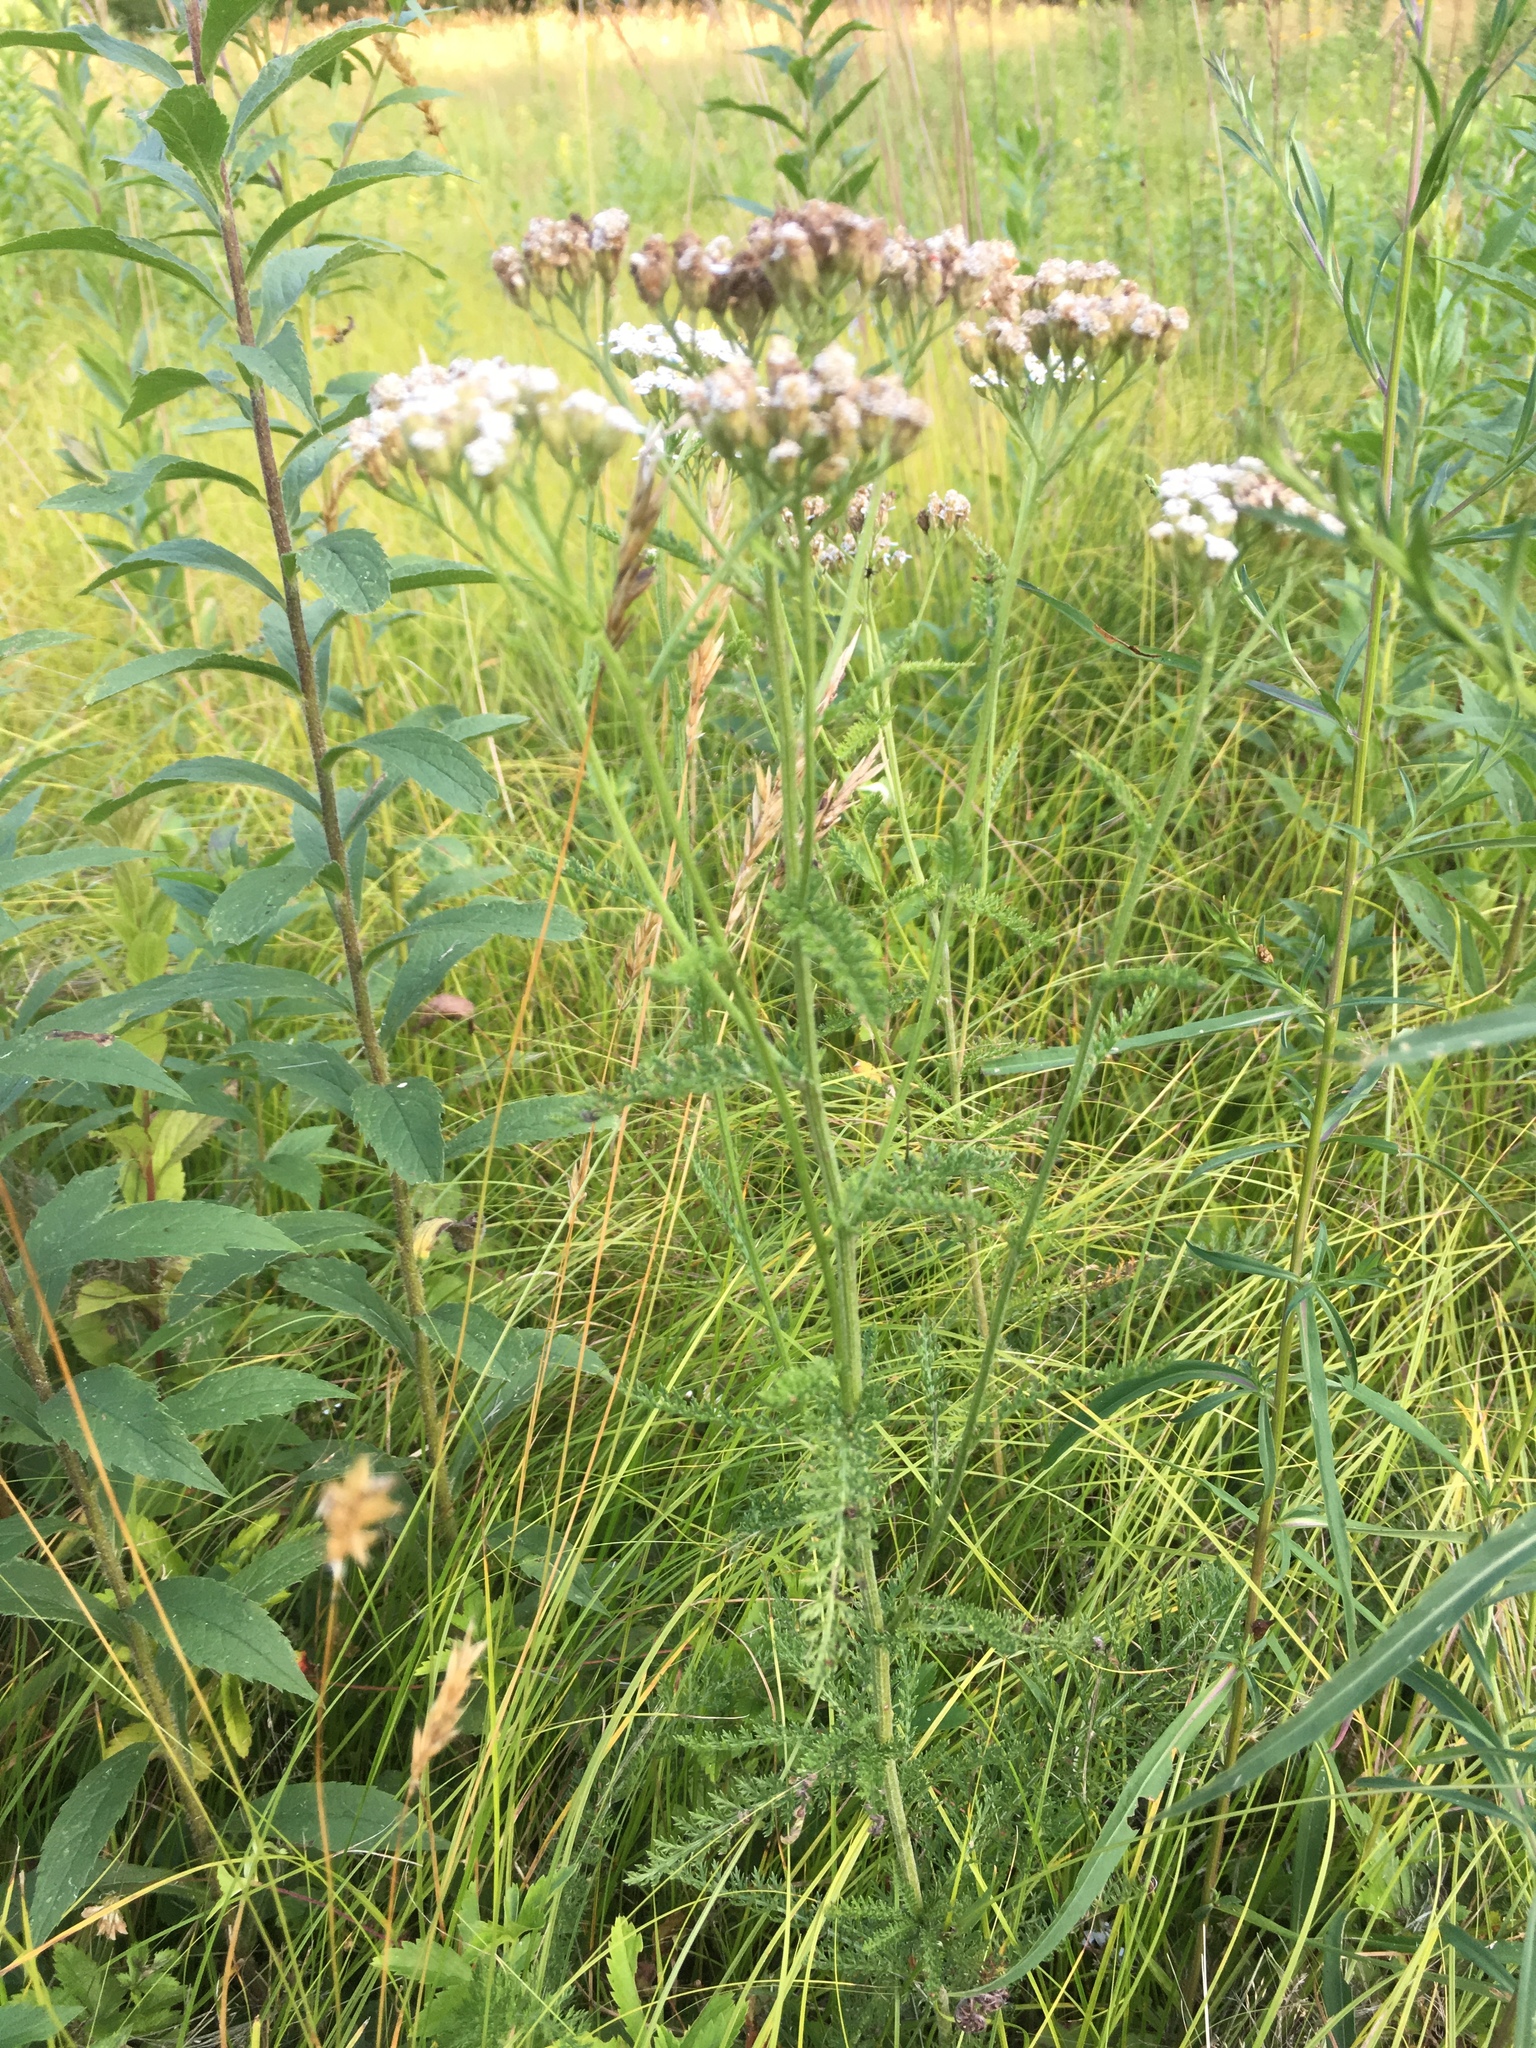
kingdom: Plantae
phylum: Tracheophyta
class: Magnoliopsida
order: Asterales
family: Asteraceae
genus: Achillea
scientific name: Achillea millefolium
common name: Yarrow
